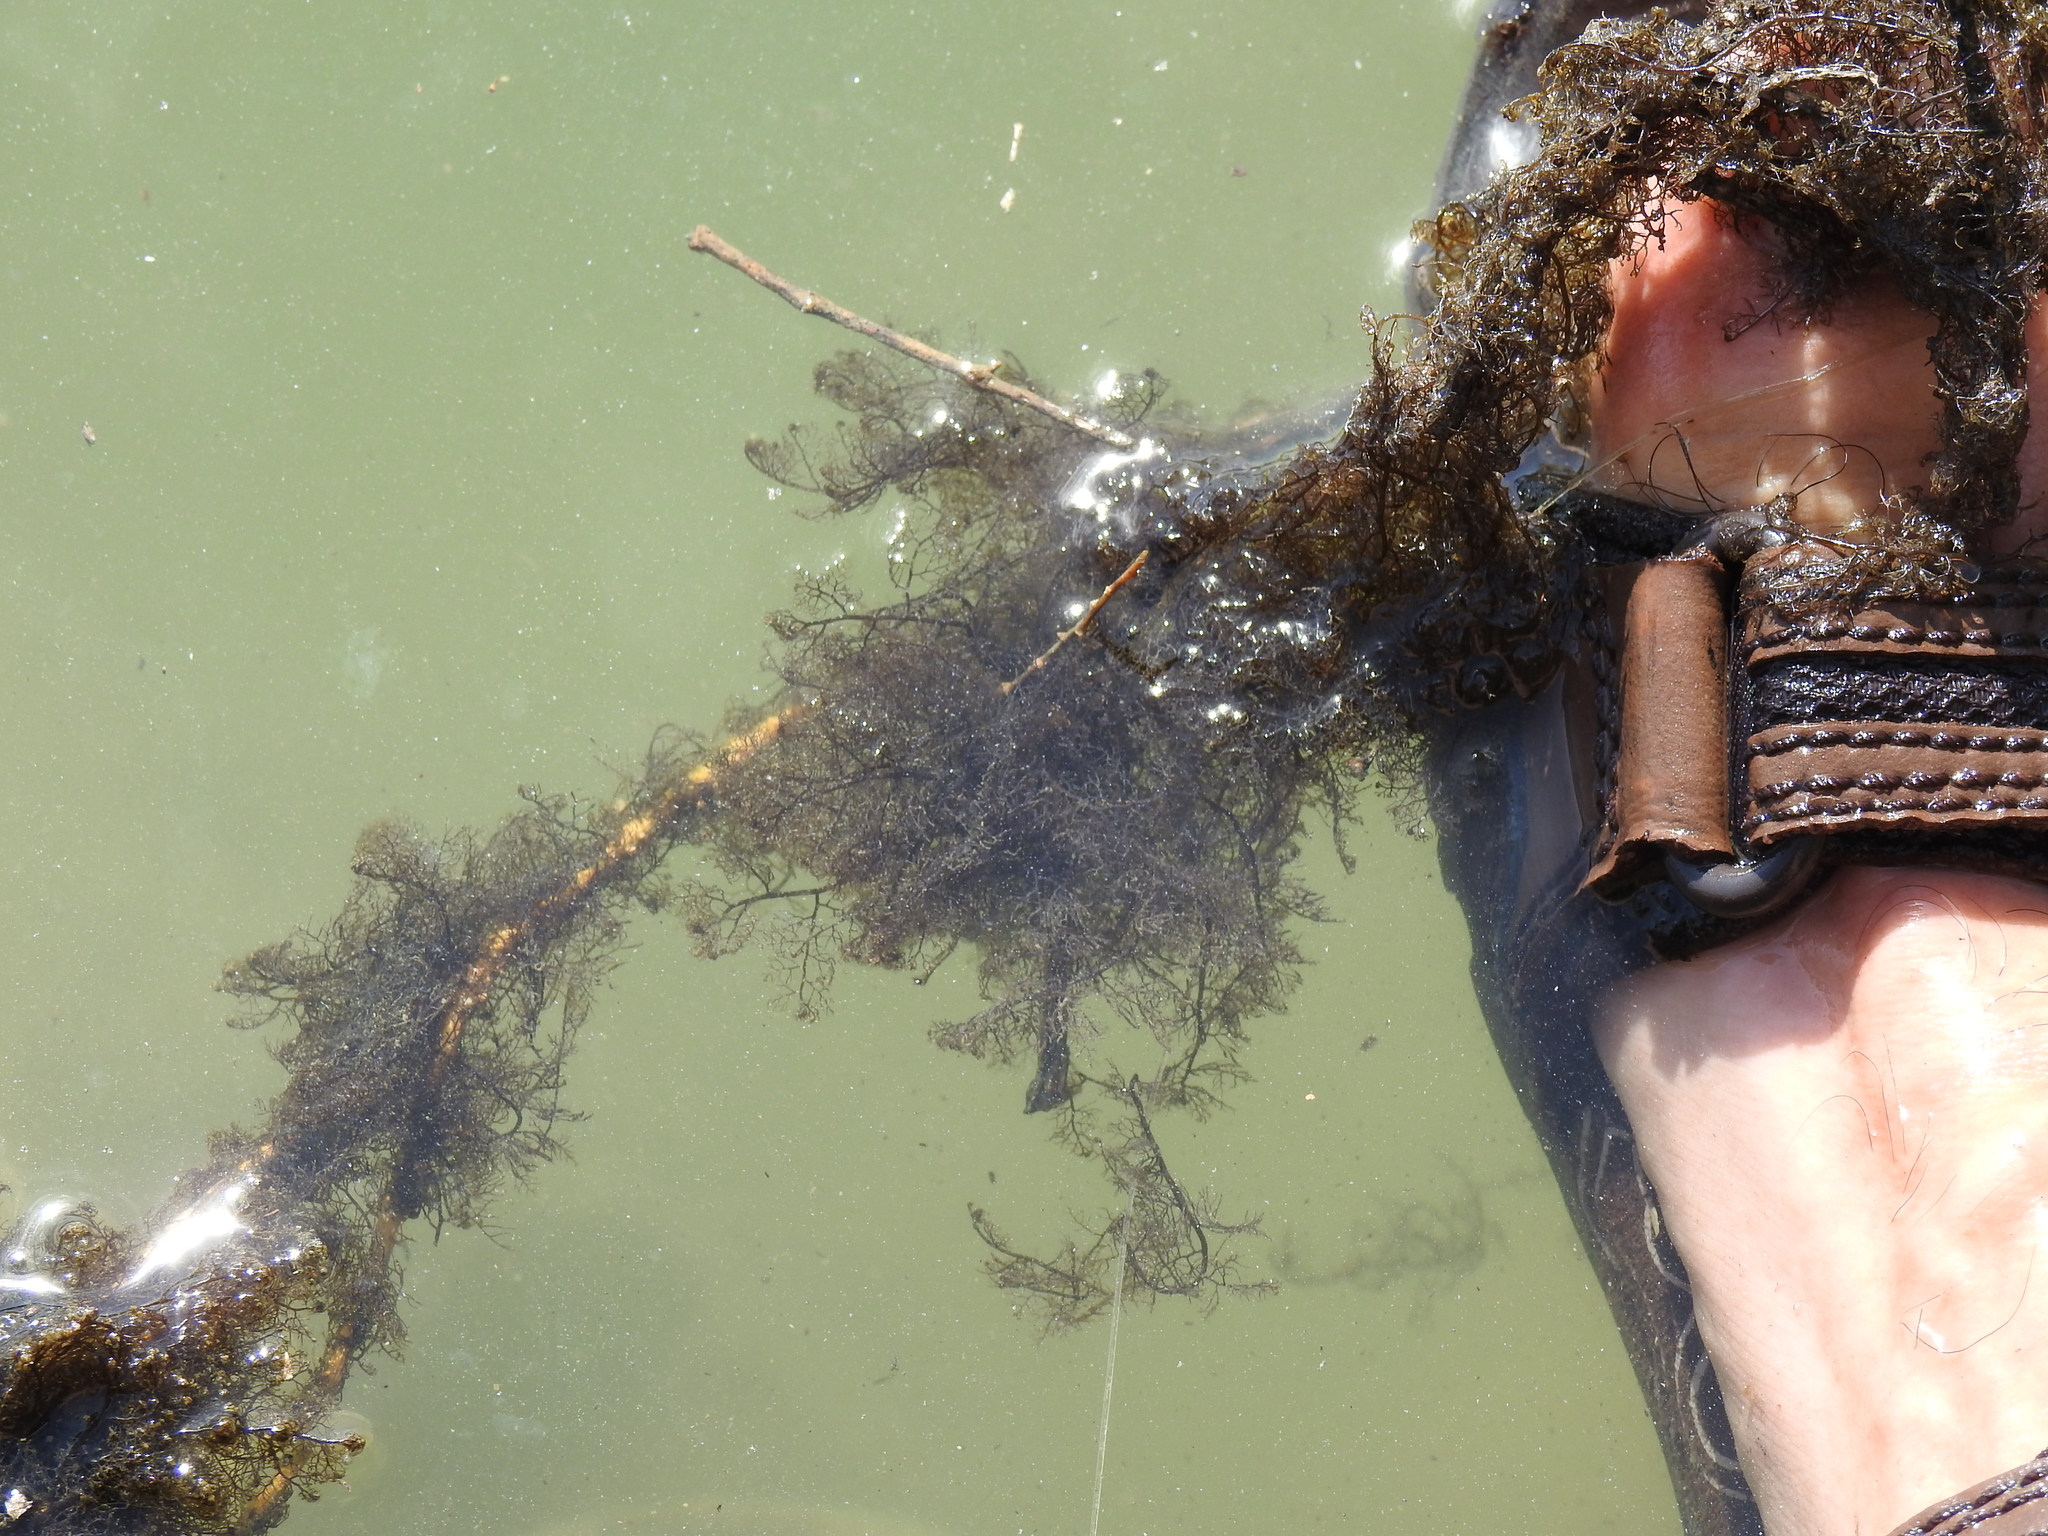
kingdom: Plantae
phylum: Rhodophyta
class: Florideophyceae
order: Ceramiales
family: Rhodomelaceae
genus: Bostrychia
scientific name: Bostrychia montagnei
